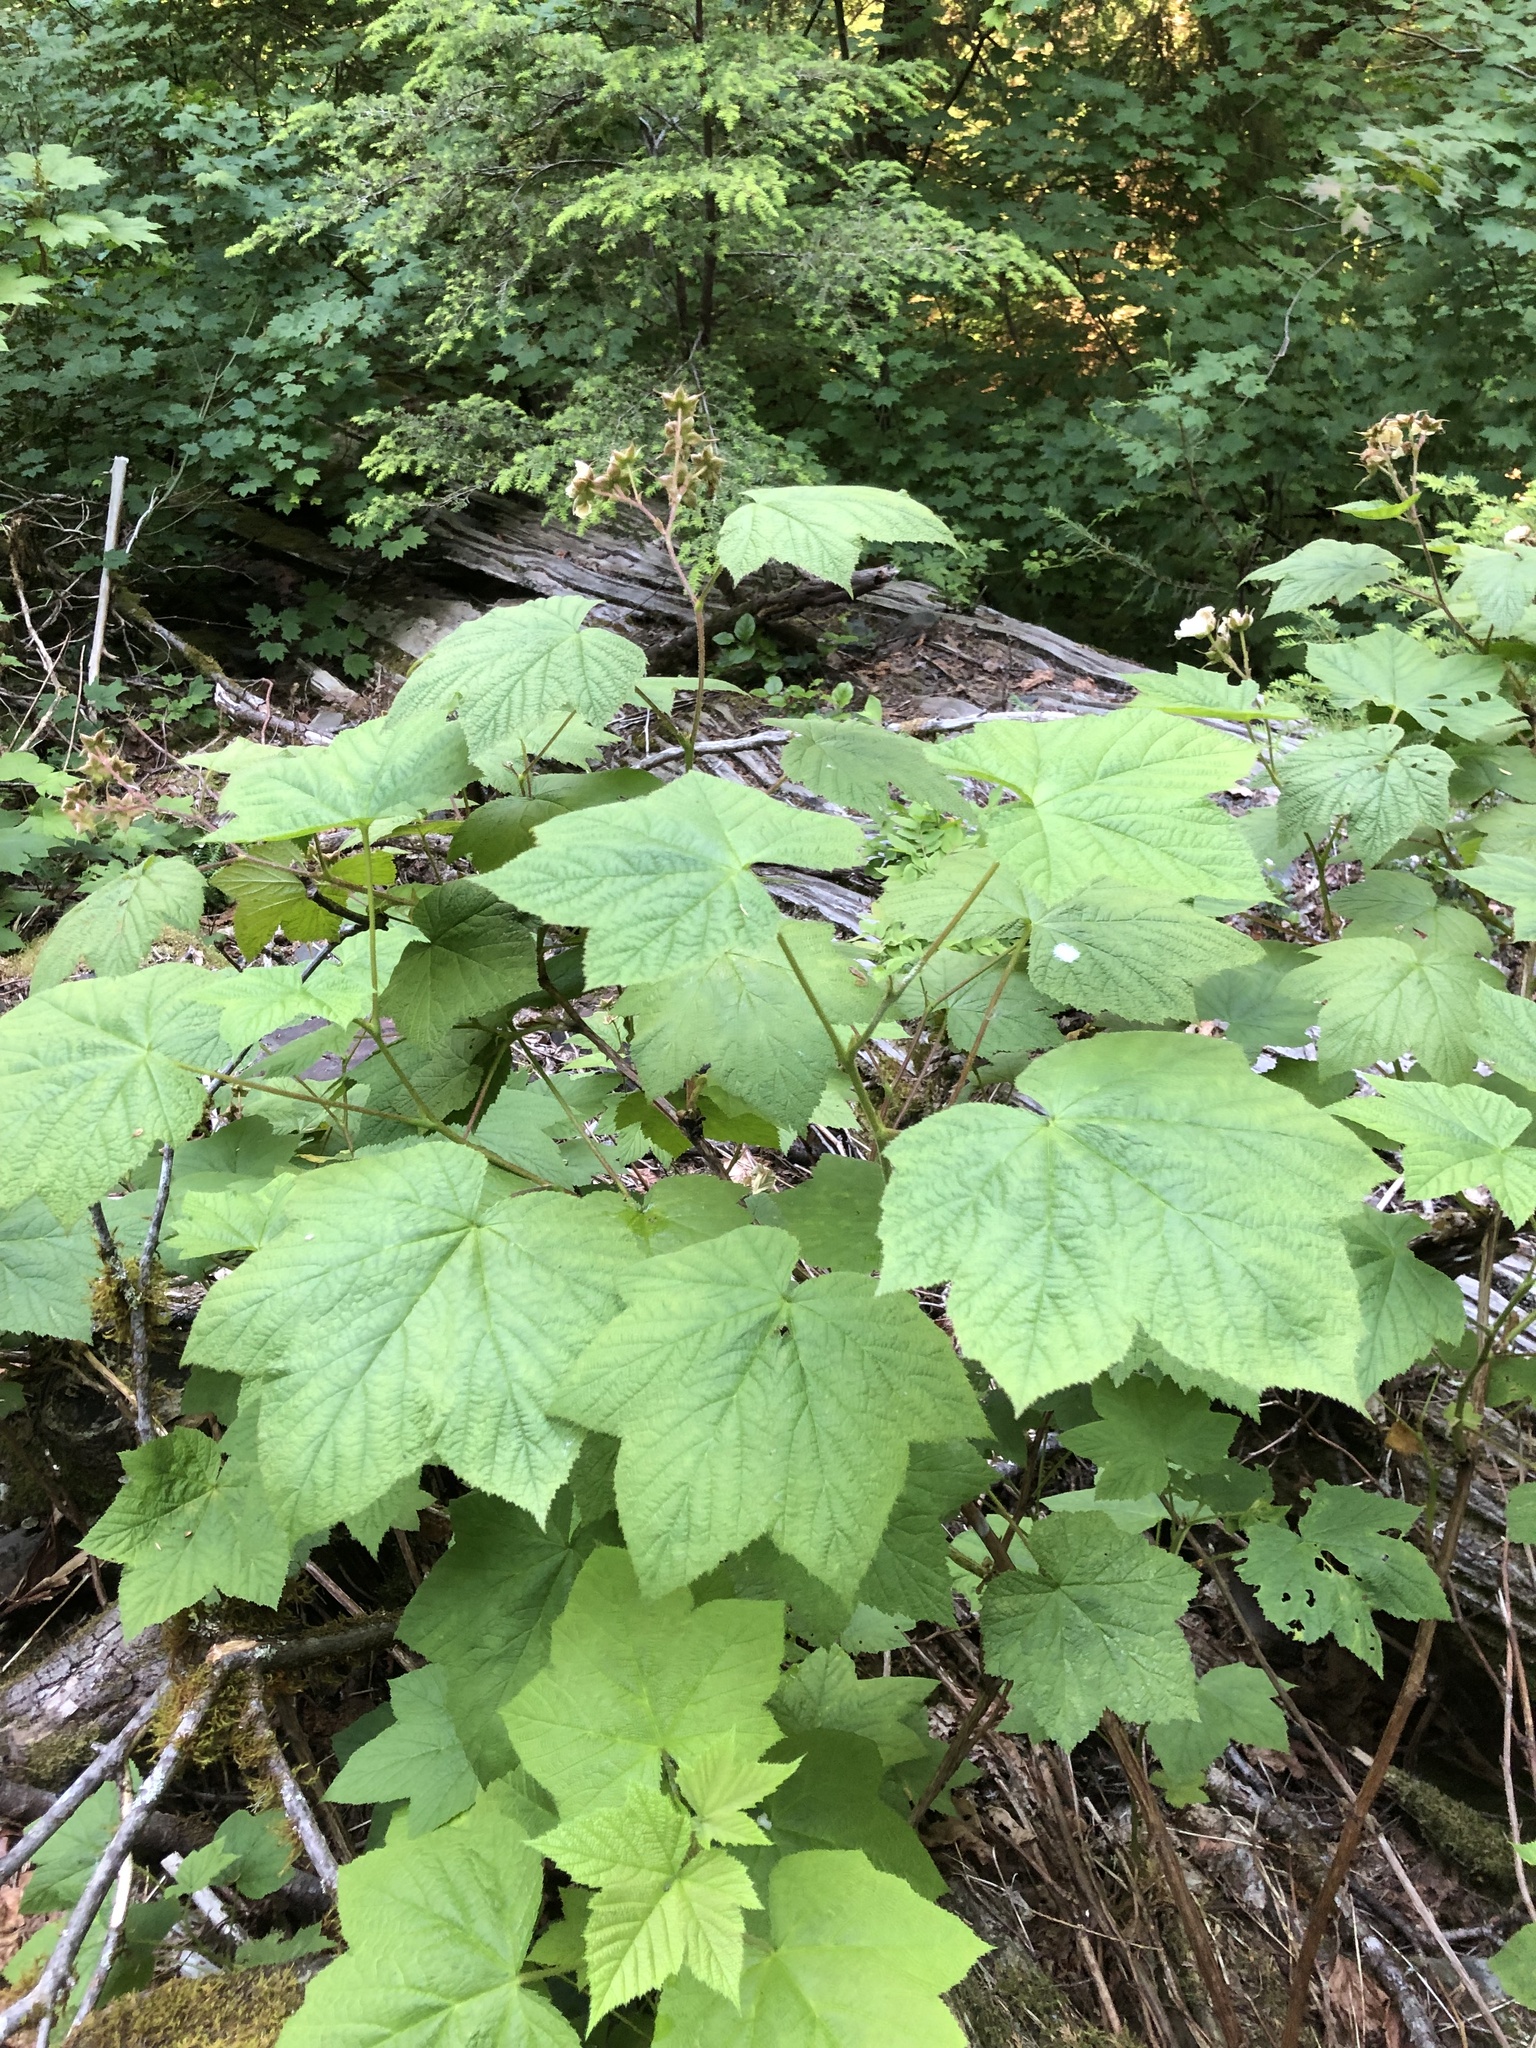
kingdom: Plantae
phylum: Tracheophyta
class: Magnoliopsida
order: Rosales
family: Rosaceae
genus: Rubus
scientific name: Rubus parviflorus
